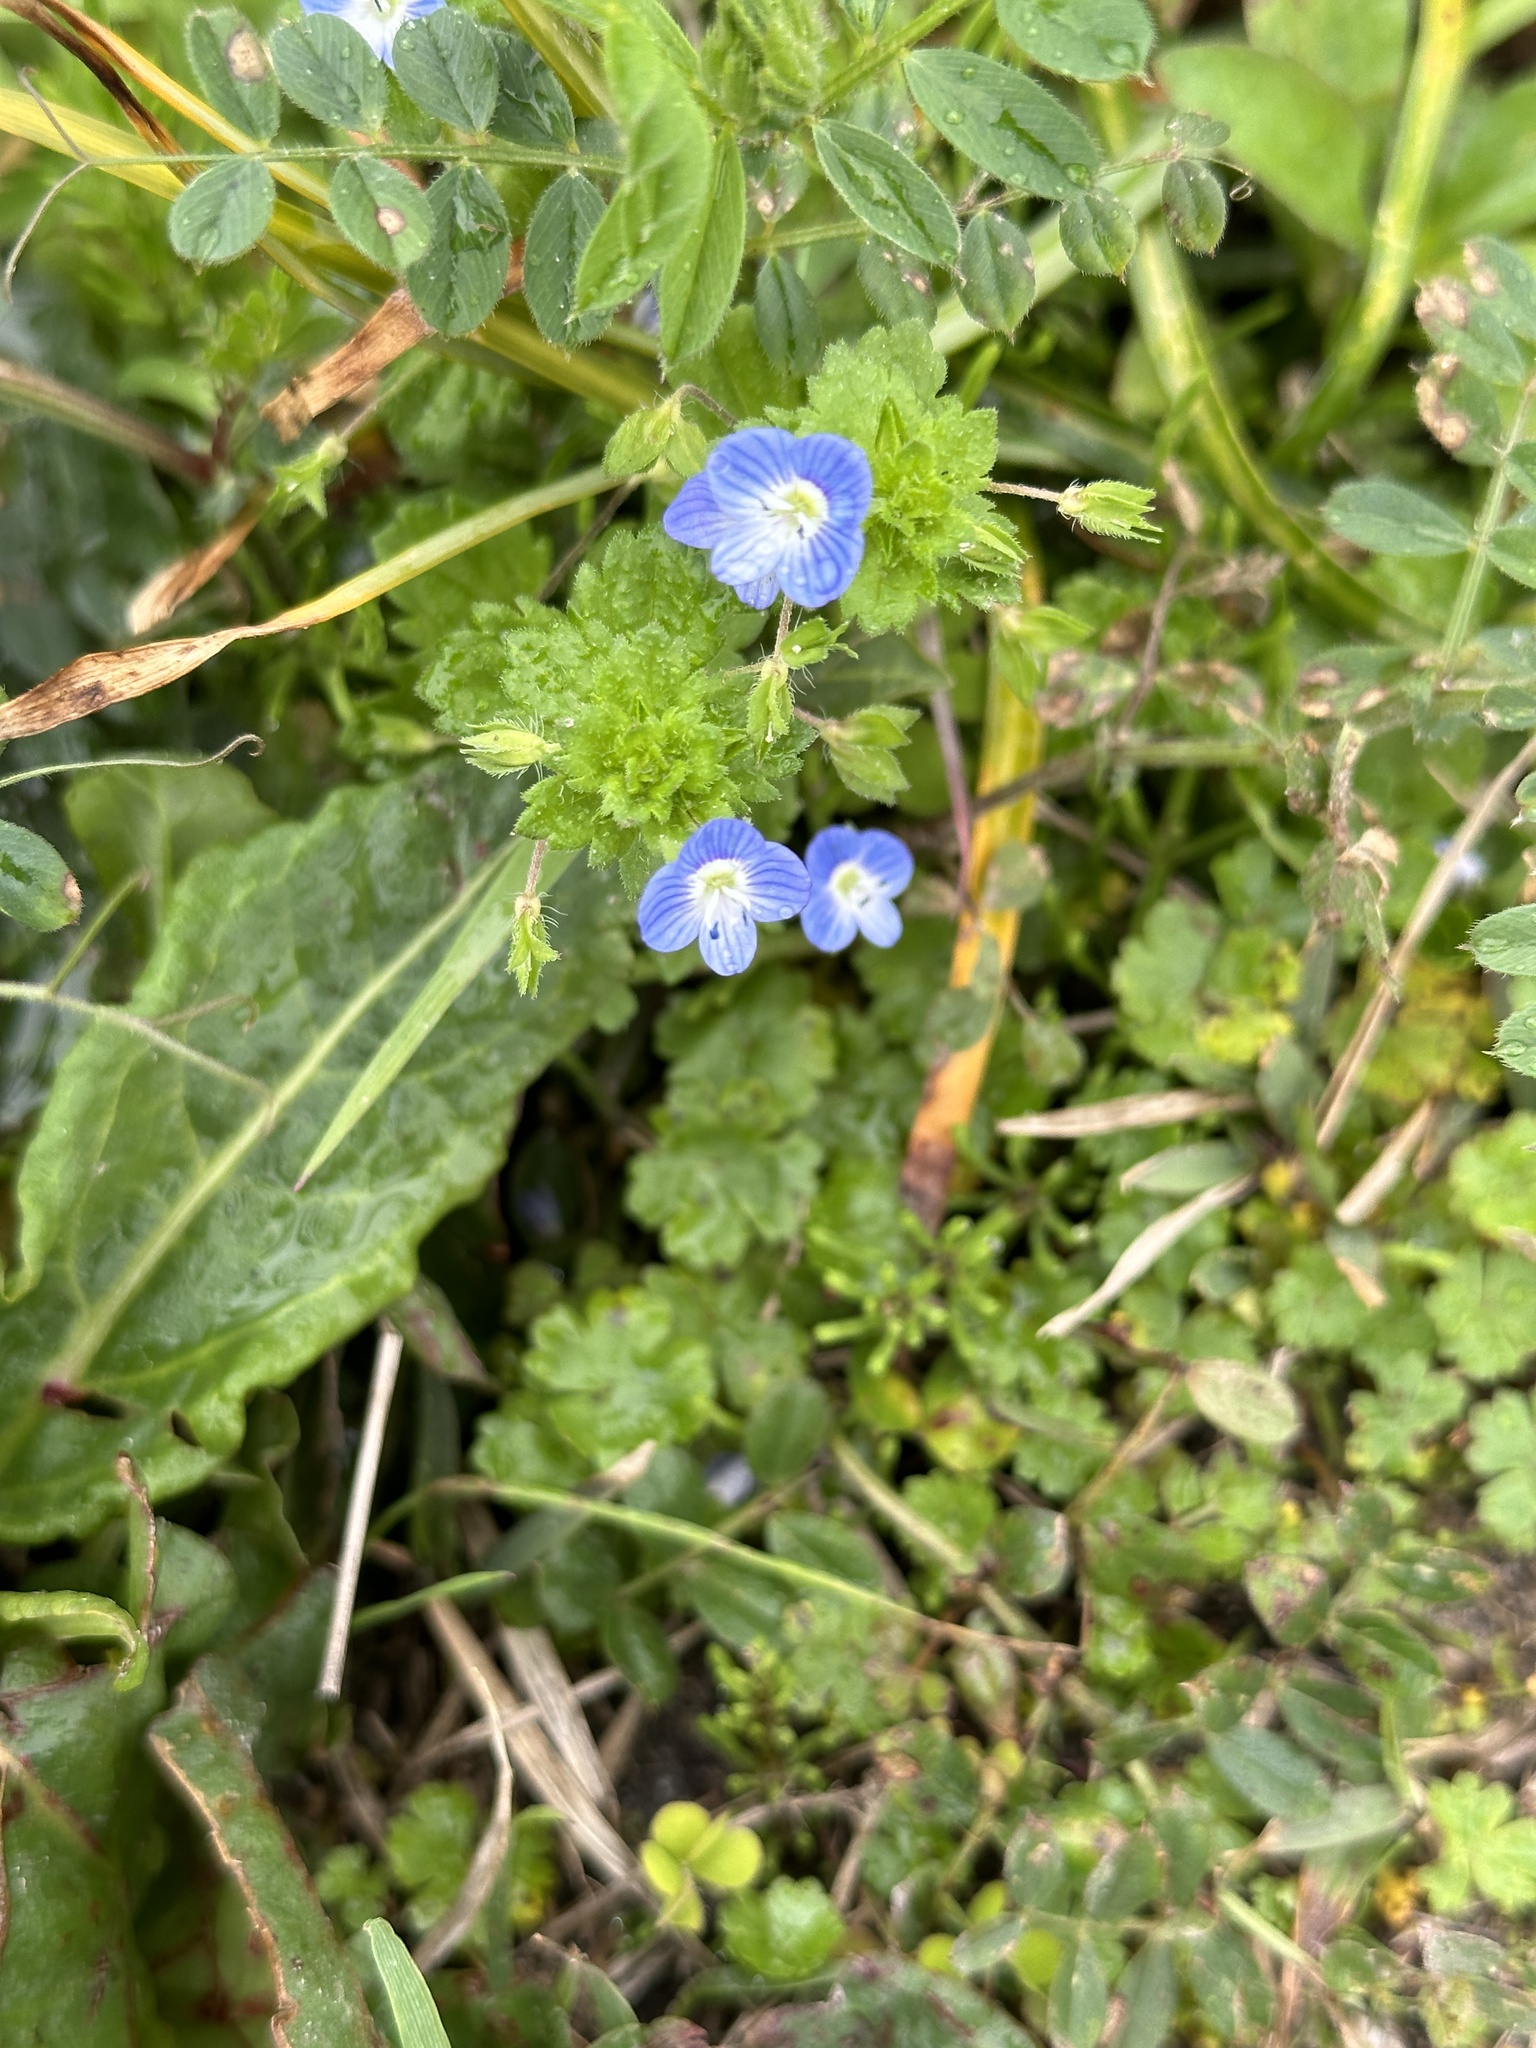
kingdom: Plantae
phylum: Tracheophyta
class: Magnoliopsida
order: Lamiales
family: Plantaginaceae
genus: Veronica
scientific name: Veronica persica
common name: Common field-speedwell
